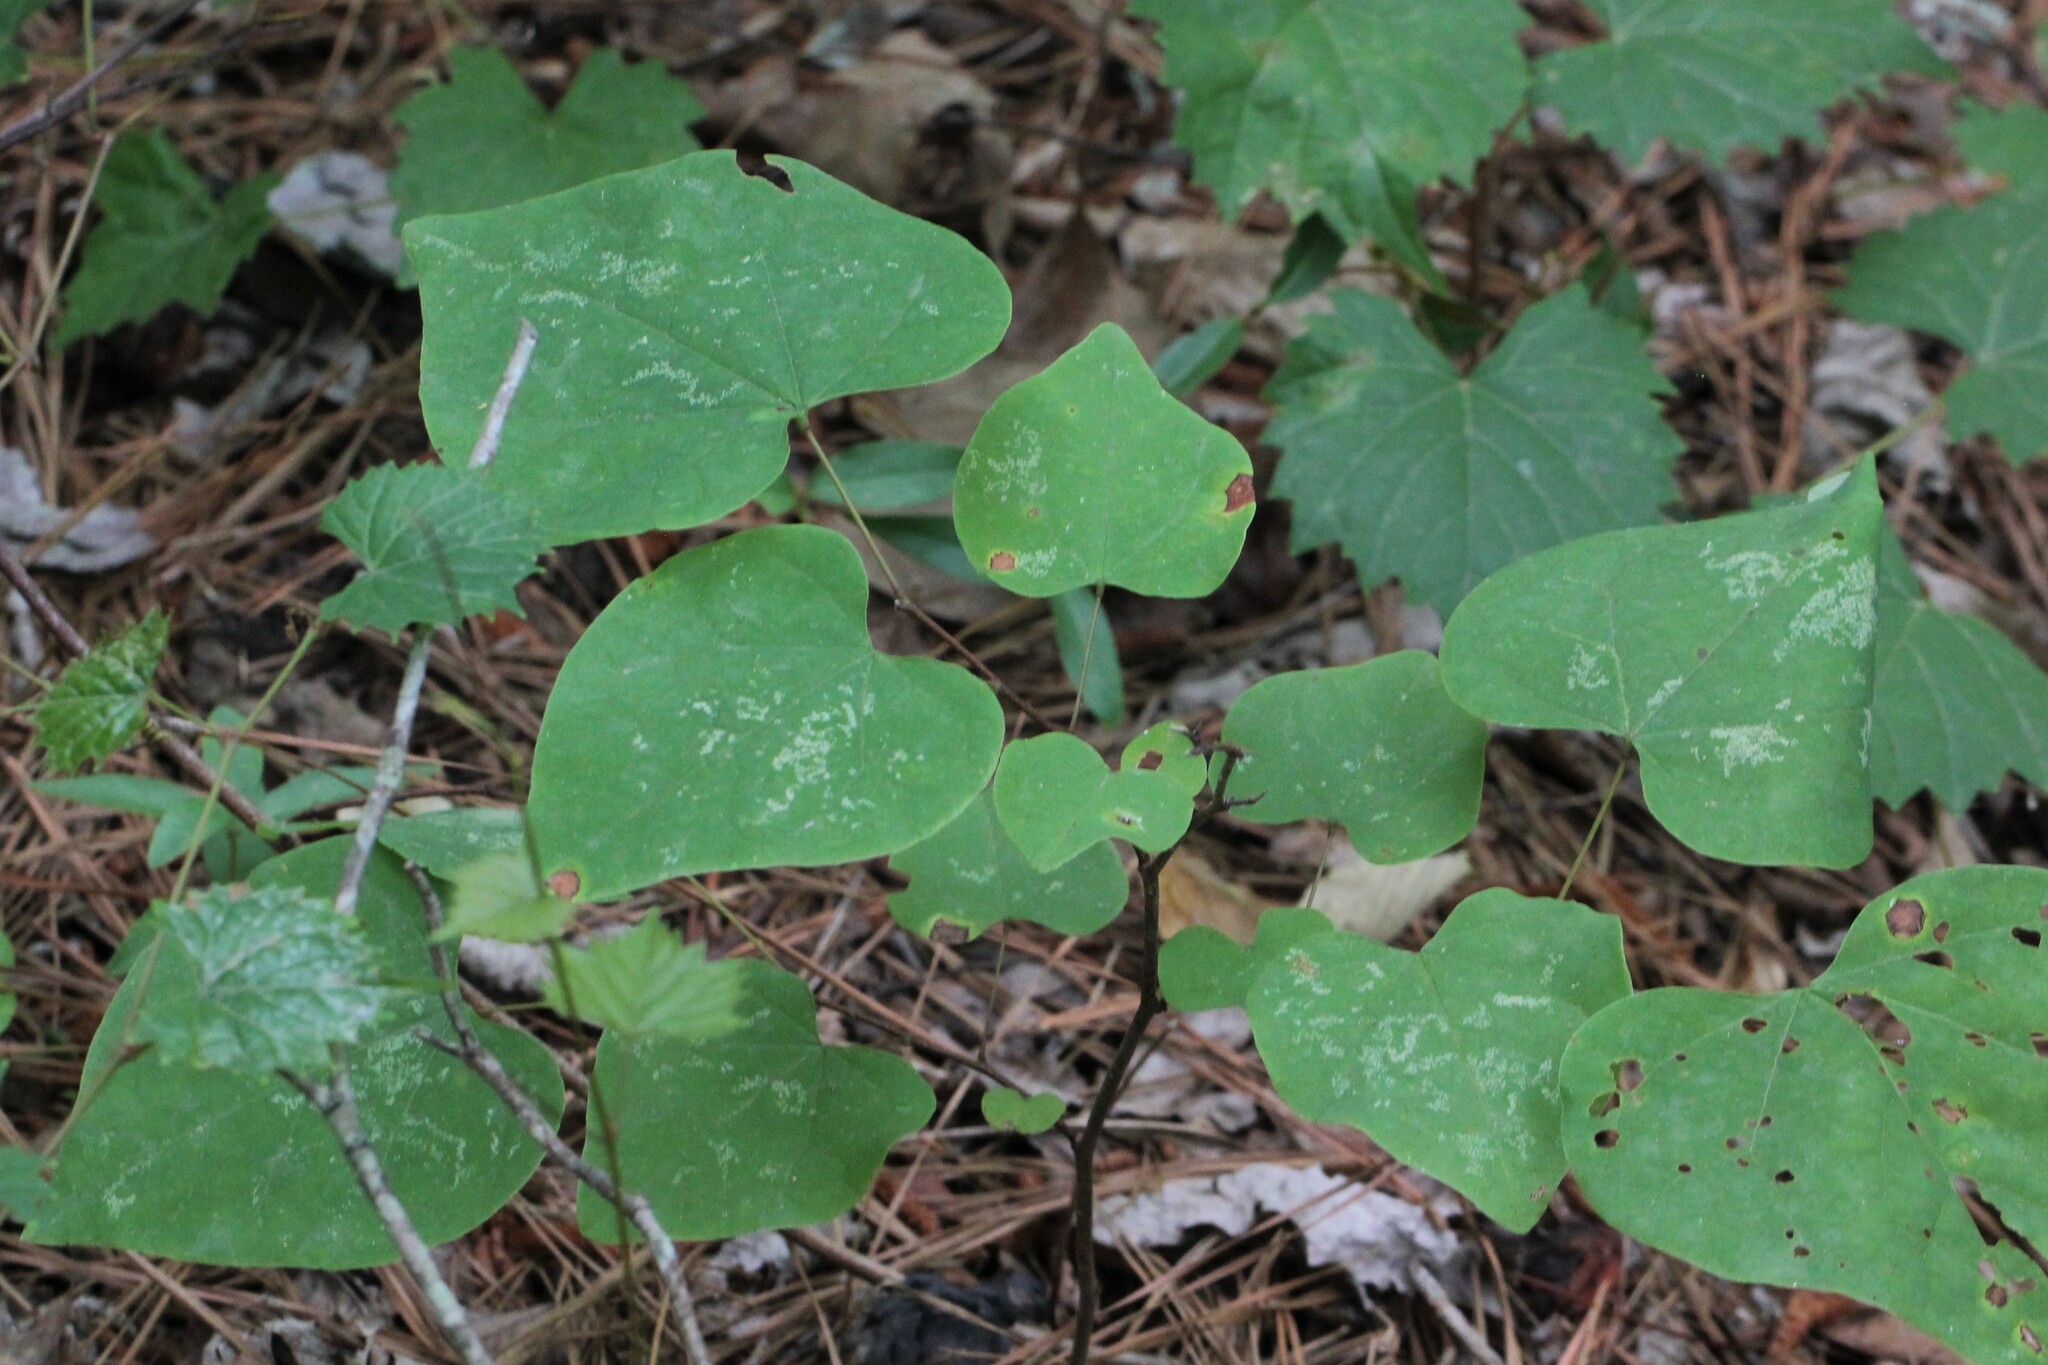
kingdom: Plantae
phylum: Tracheophyta
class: Magnoliopsida
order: Fabales
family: Fabaceae
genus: Cercis
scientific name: Cercis canadensis
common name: Eastern redbud
